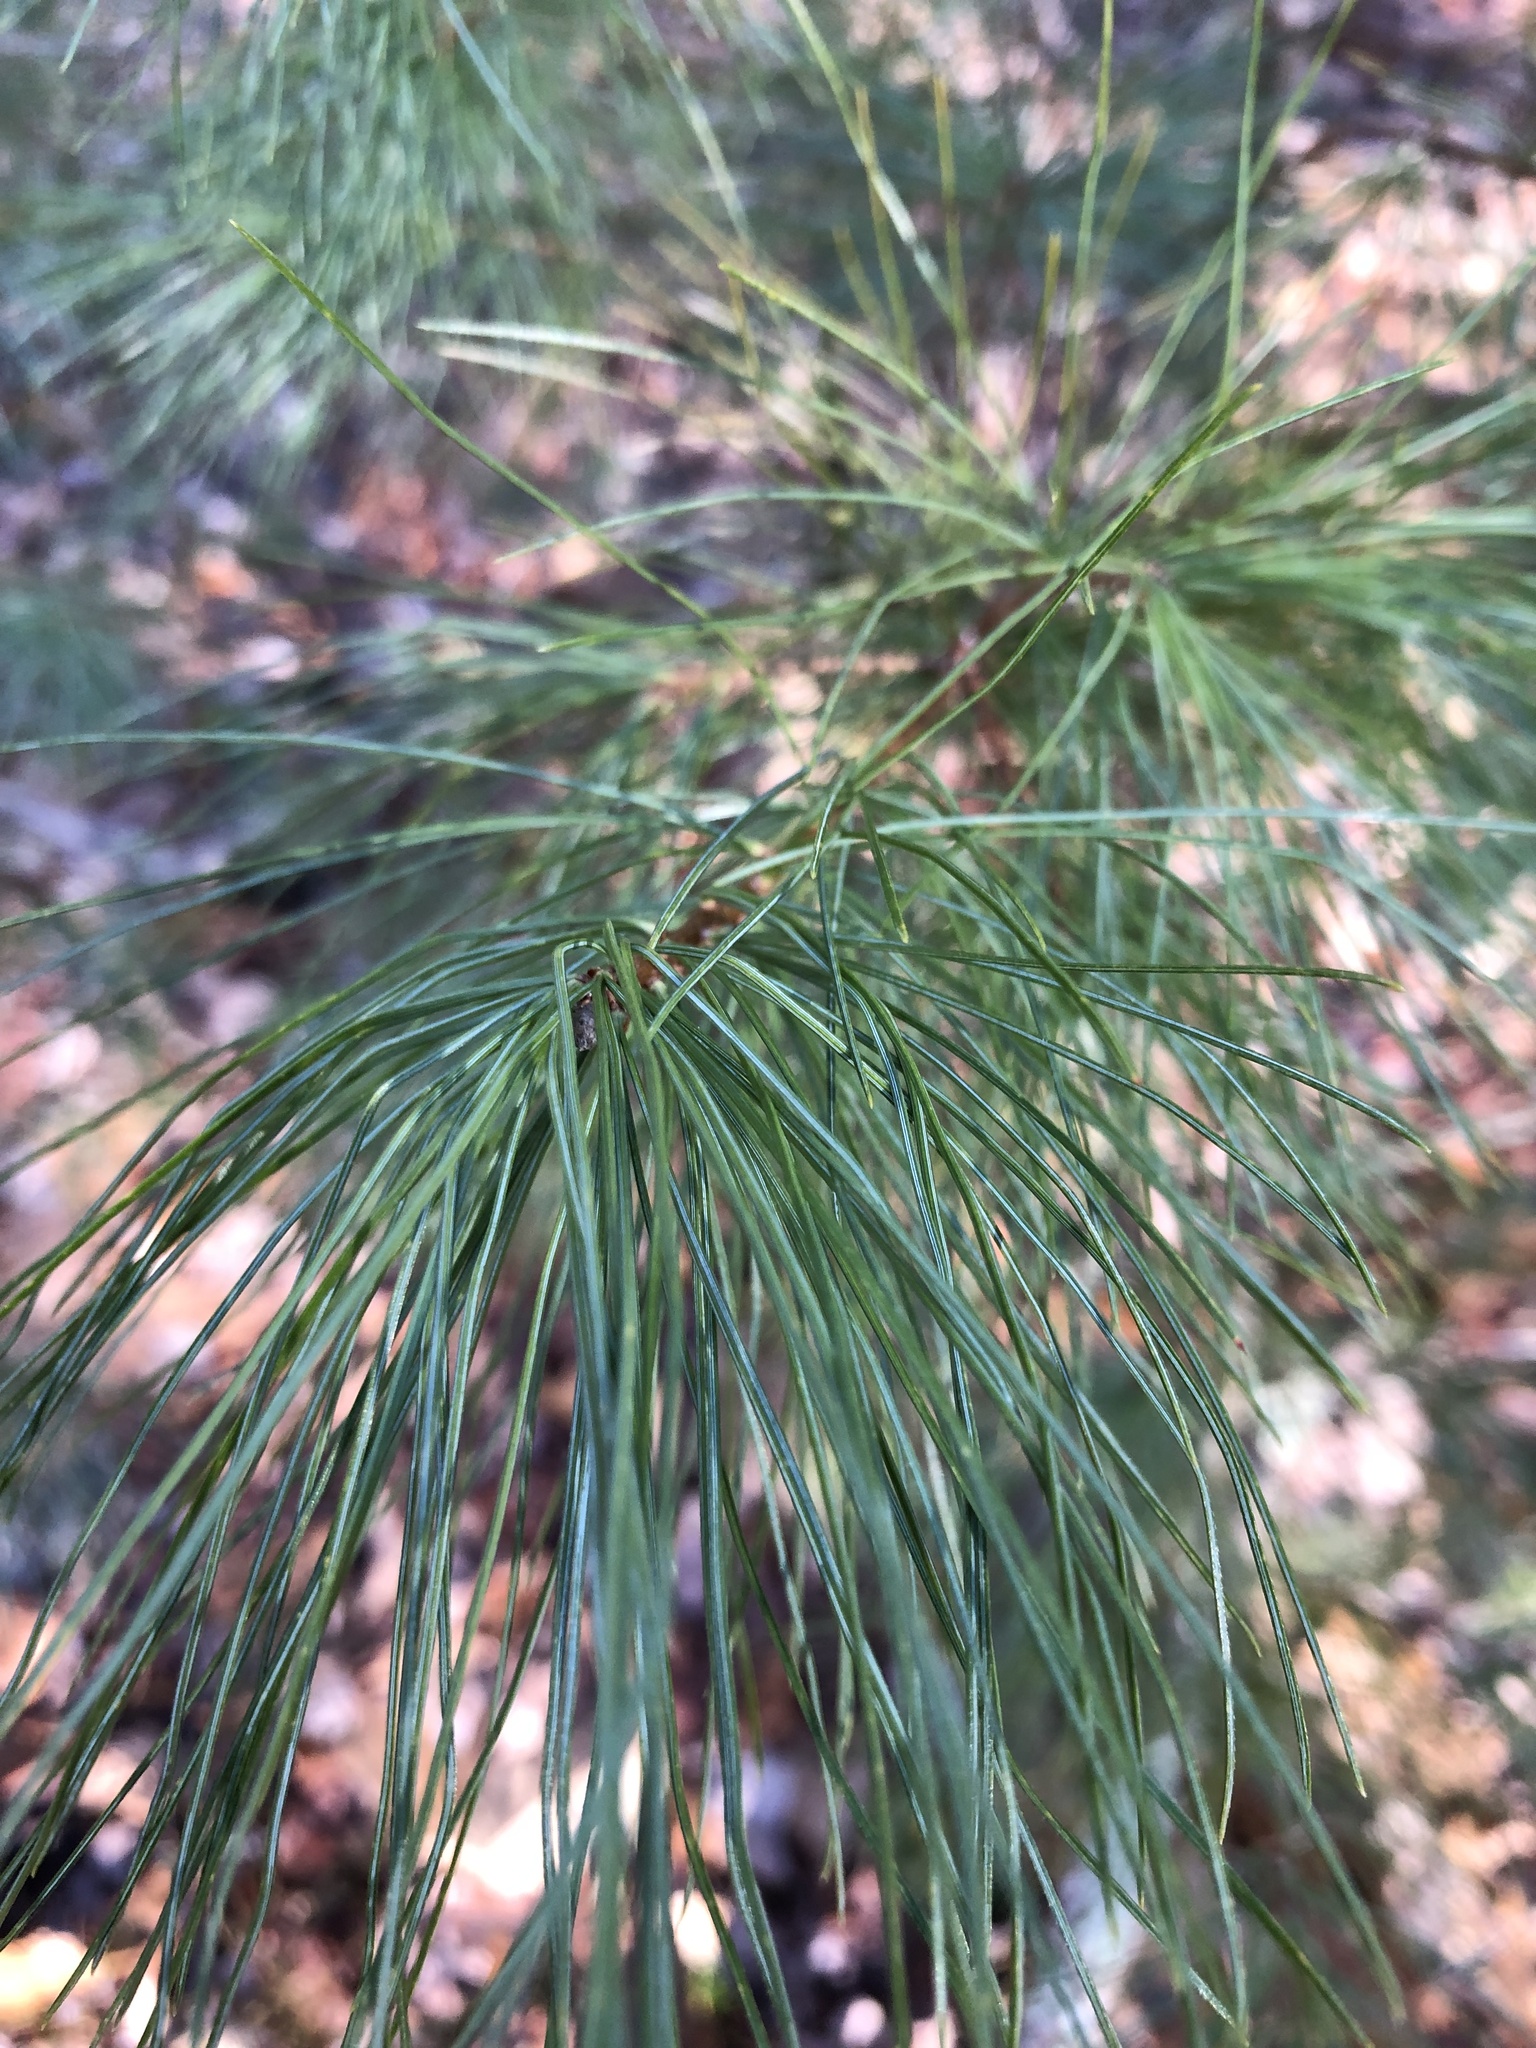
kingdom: Plantae
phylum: Tracheophyta
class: Pinopsida
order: Pinales
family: Pinaceae
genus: Pinus
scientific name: Pinus strobus
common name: Weymouth pine
